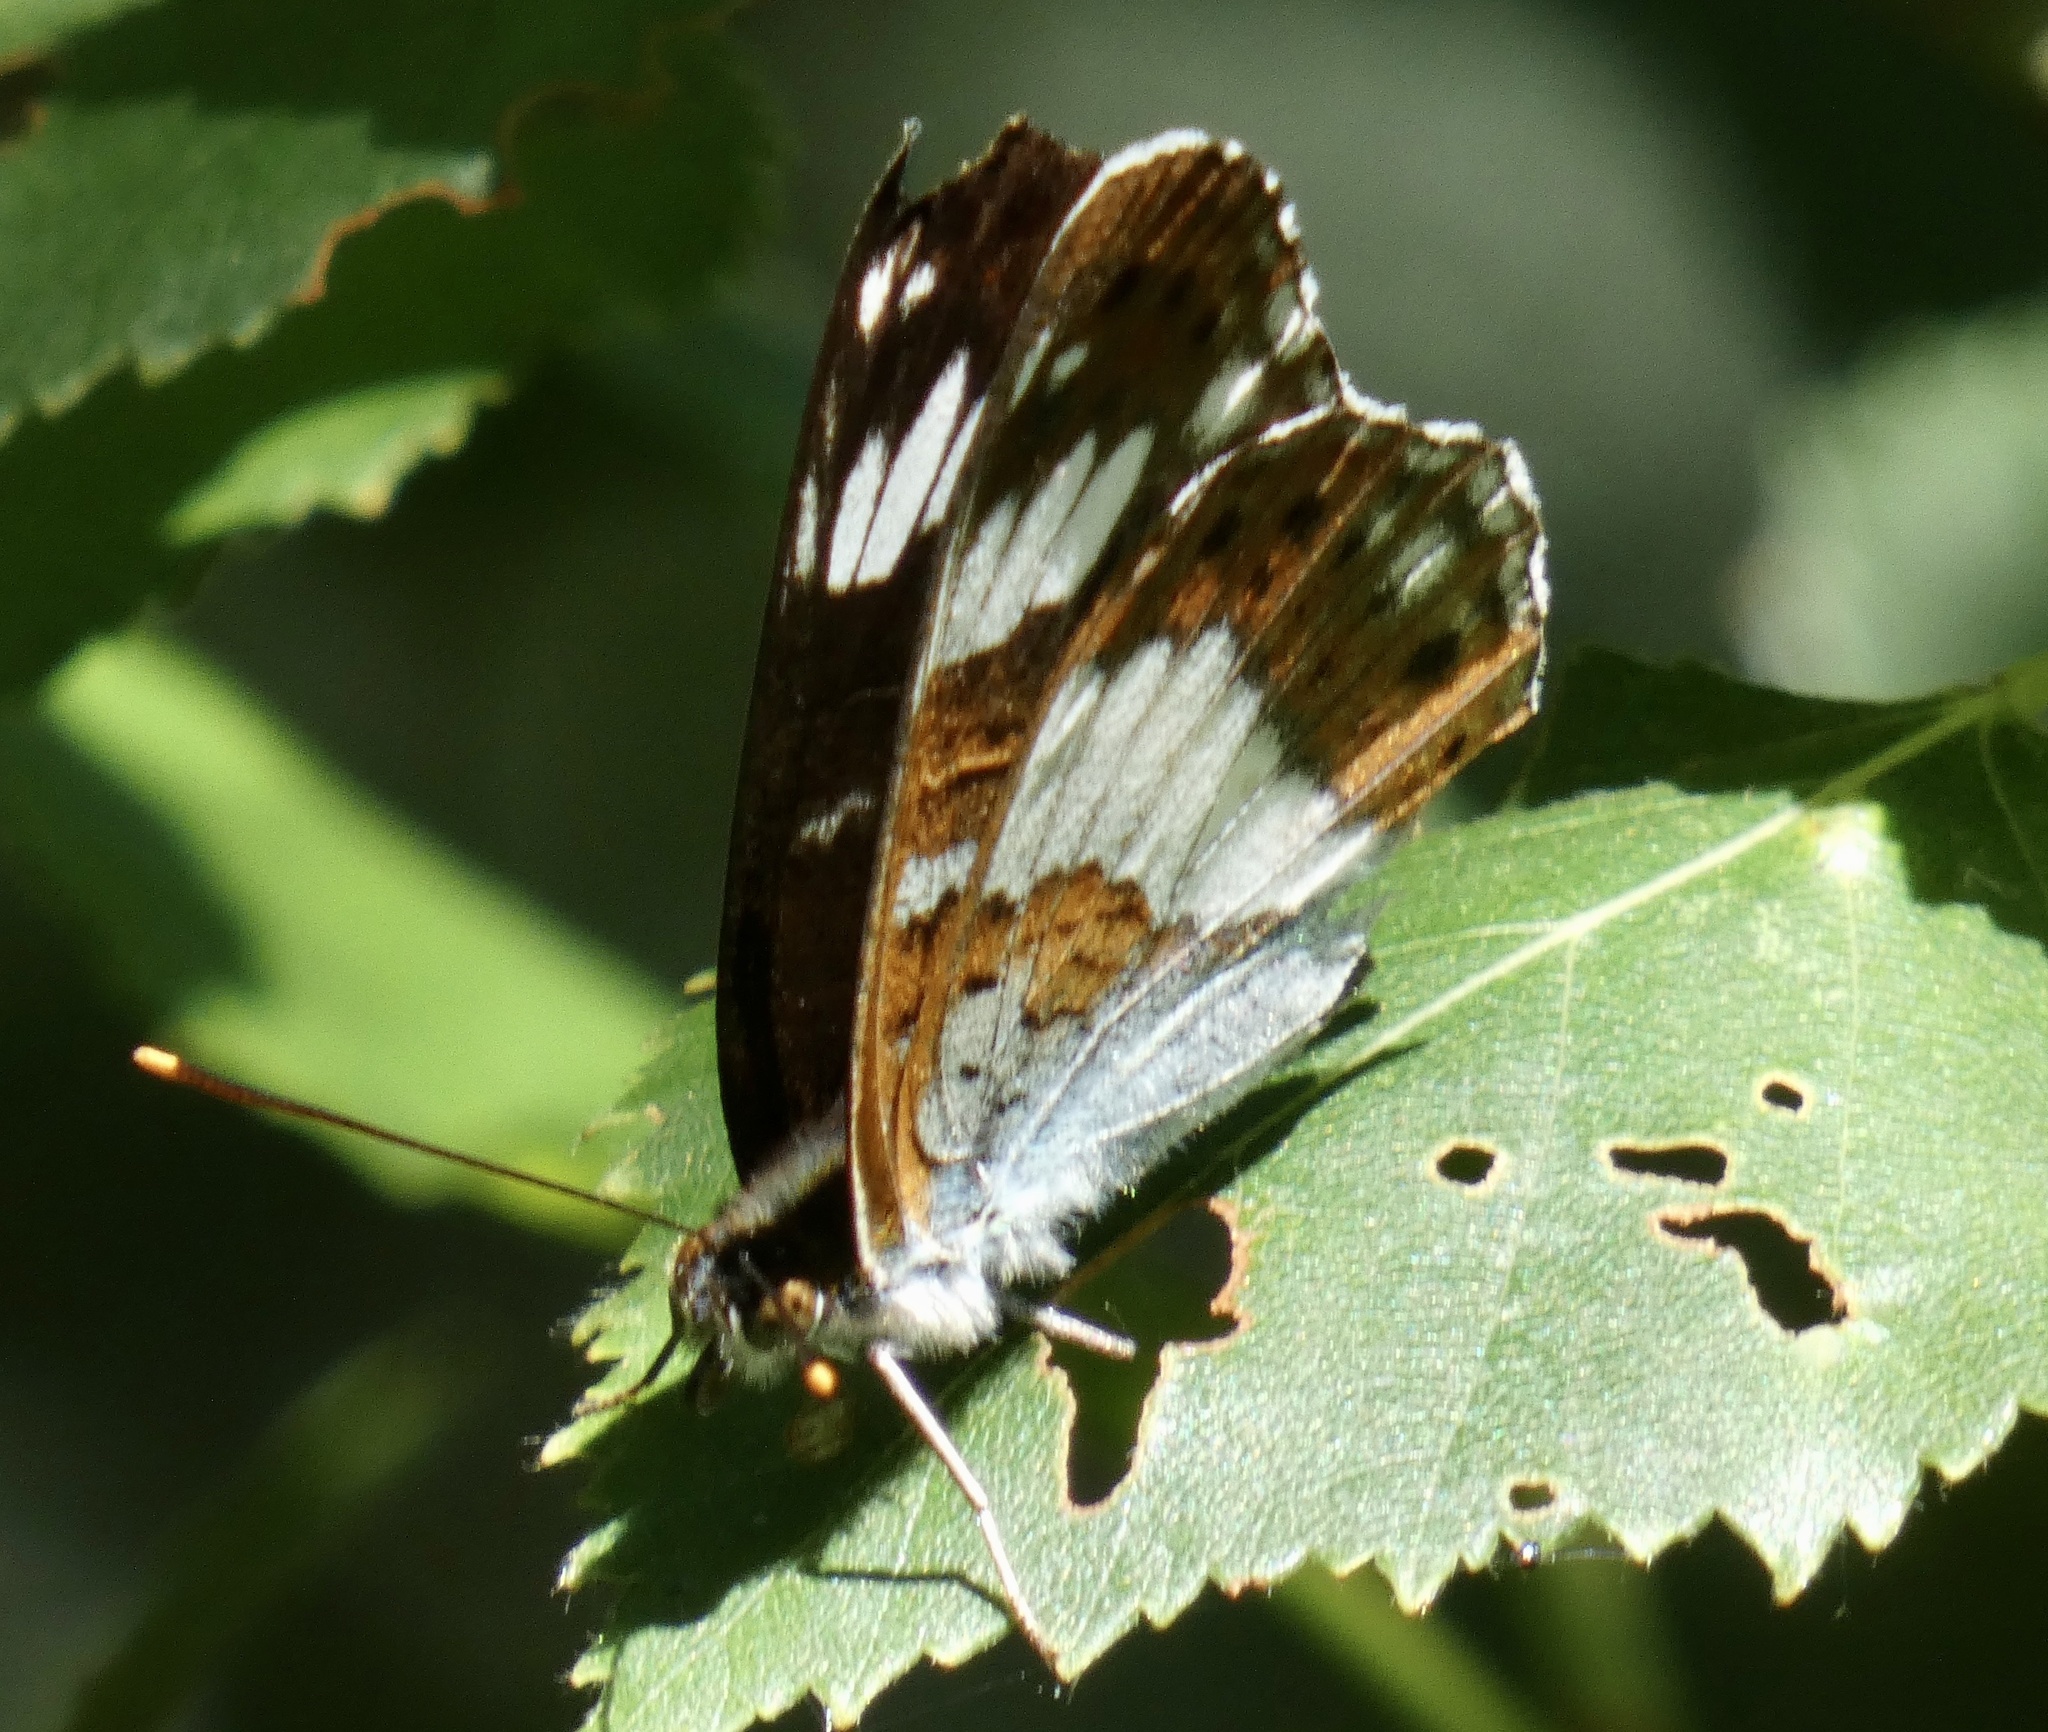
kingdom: Animalia
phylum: Arthropoda
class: Insecta
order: Lepidoptera
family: Nymphalidae
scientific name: Nymphalidae
